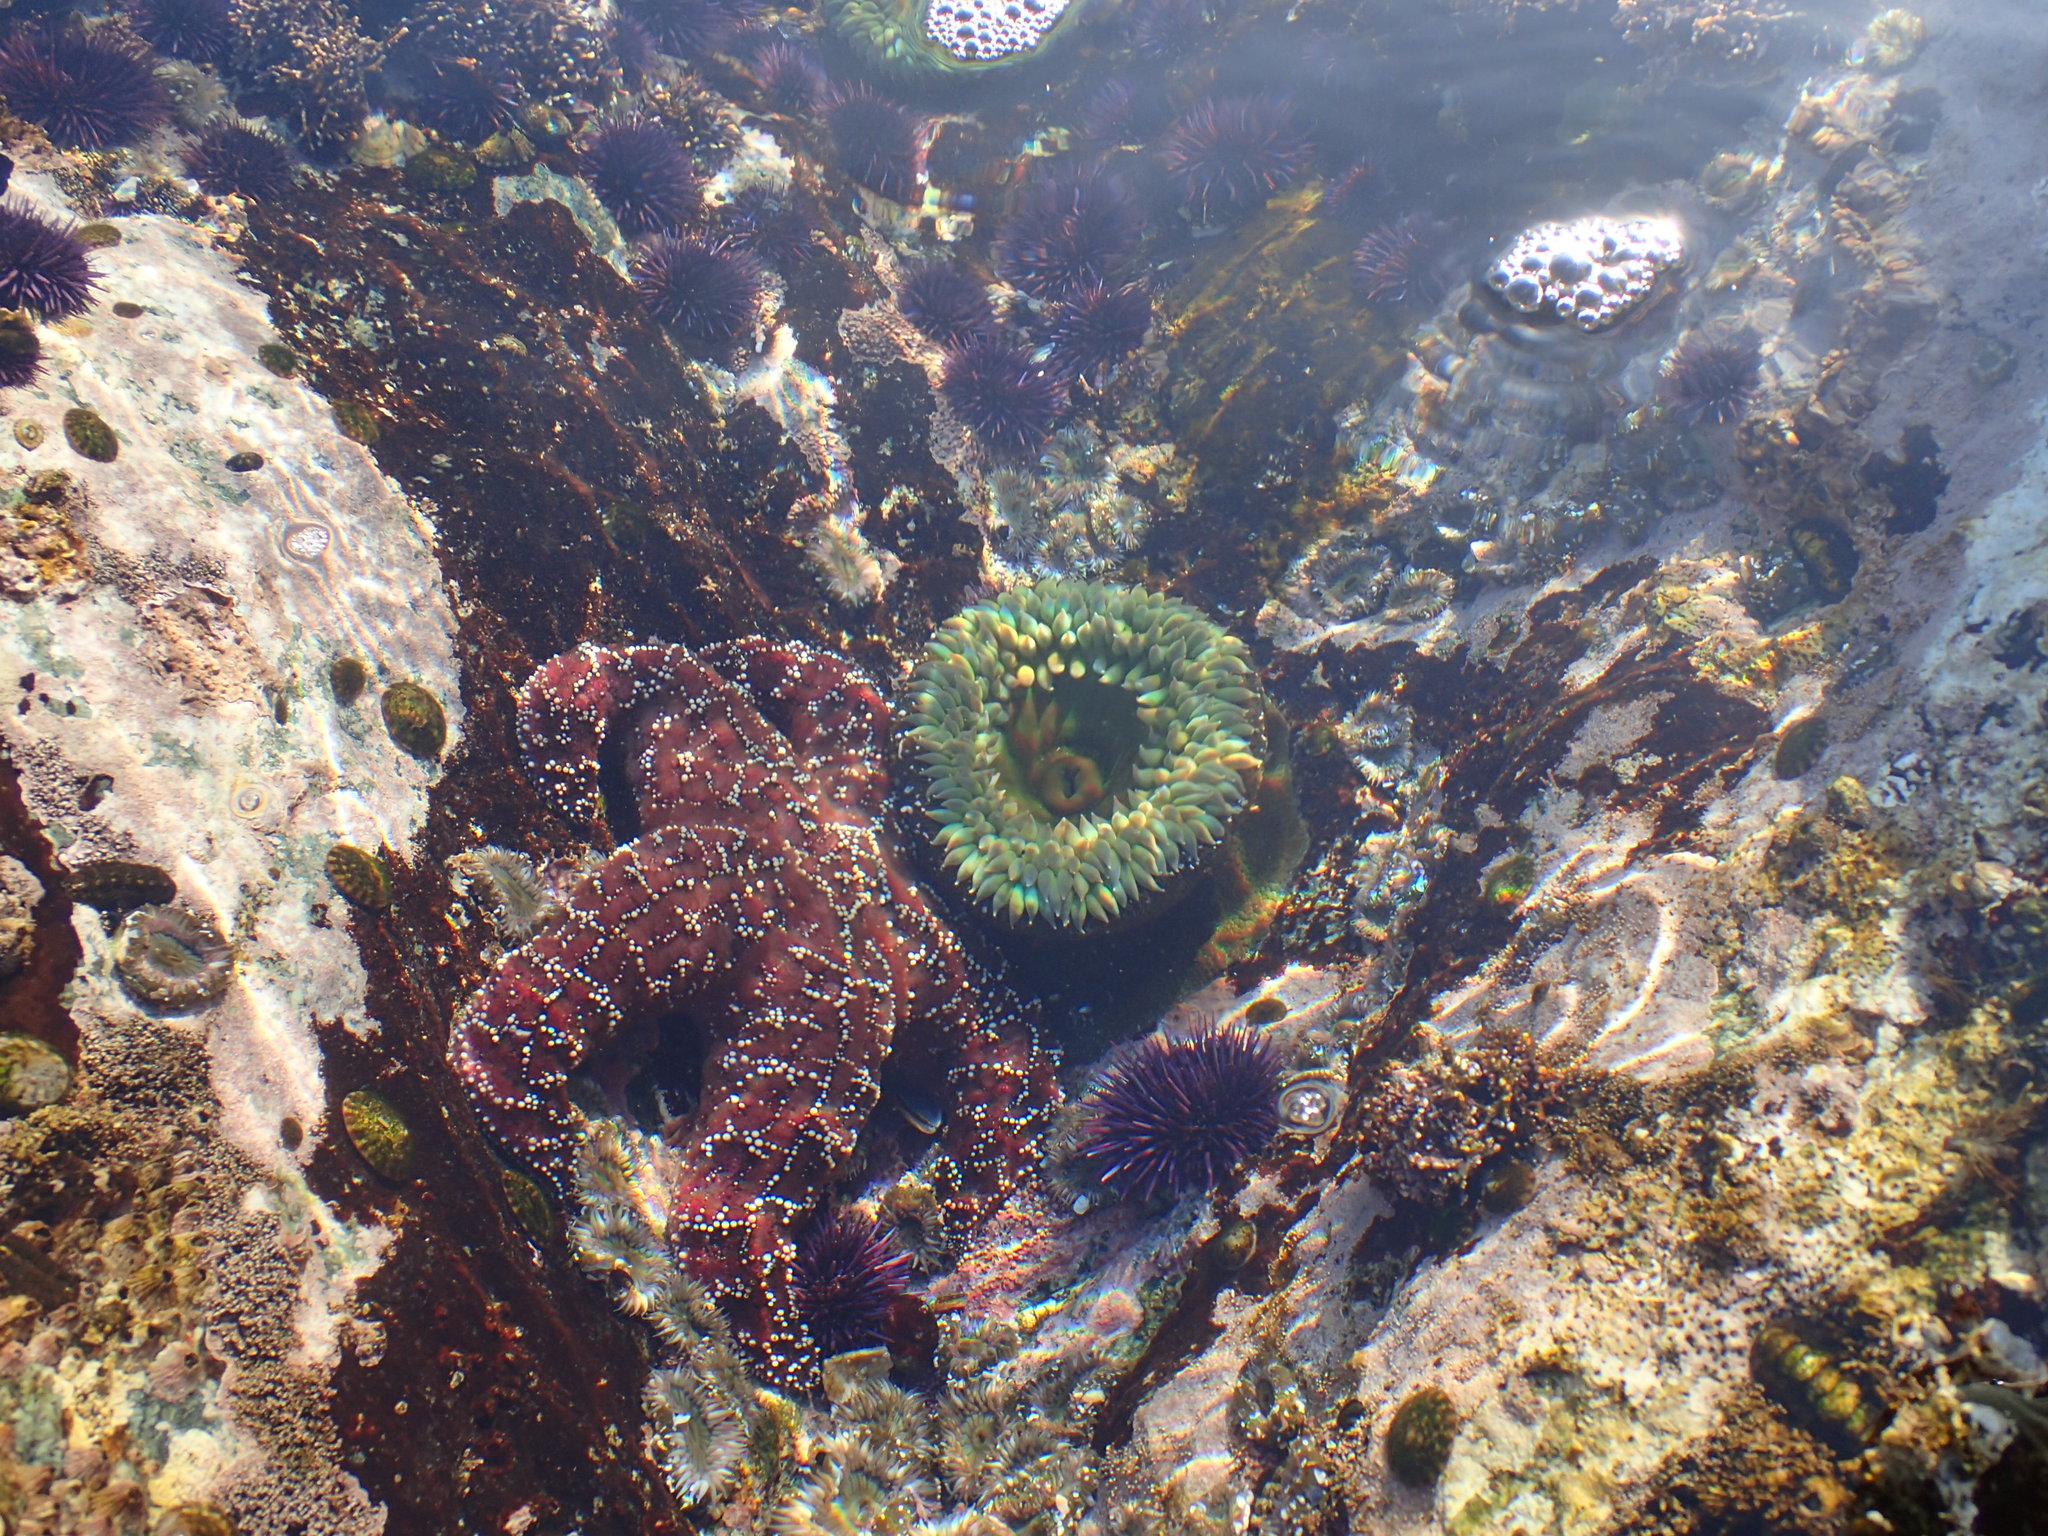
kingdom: Animalia
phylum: Echinodermata
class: Asteroidea
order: Forcipulatida
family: Asteriidae
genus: Pisaster
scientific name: Pisaster ochraceus
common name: Ochre stars
